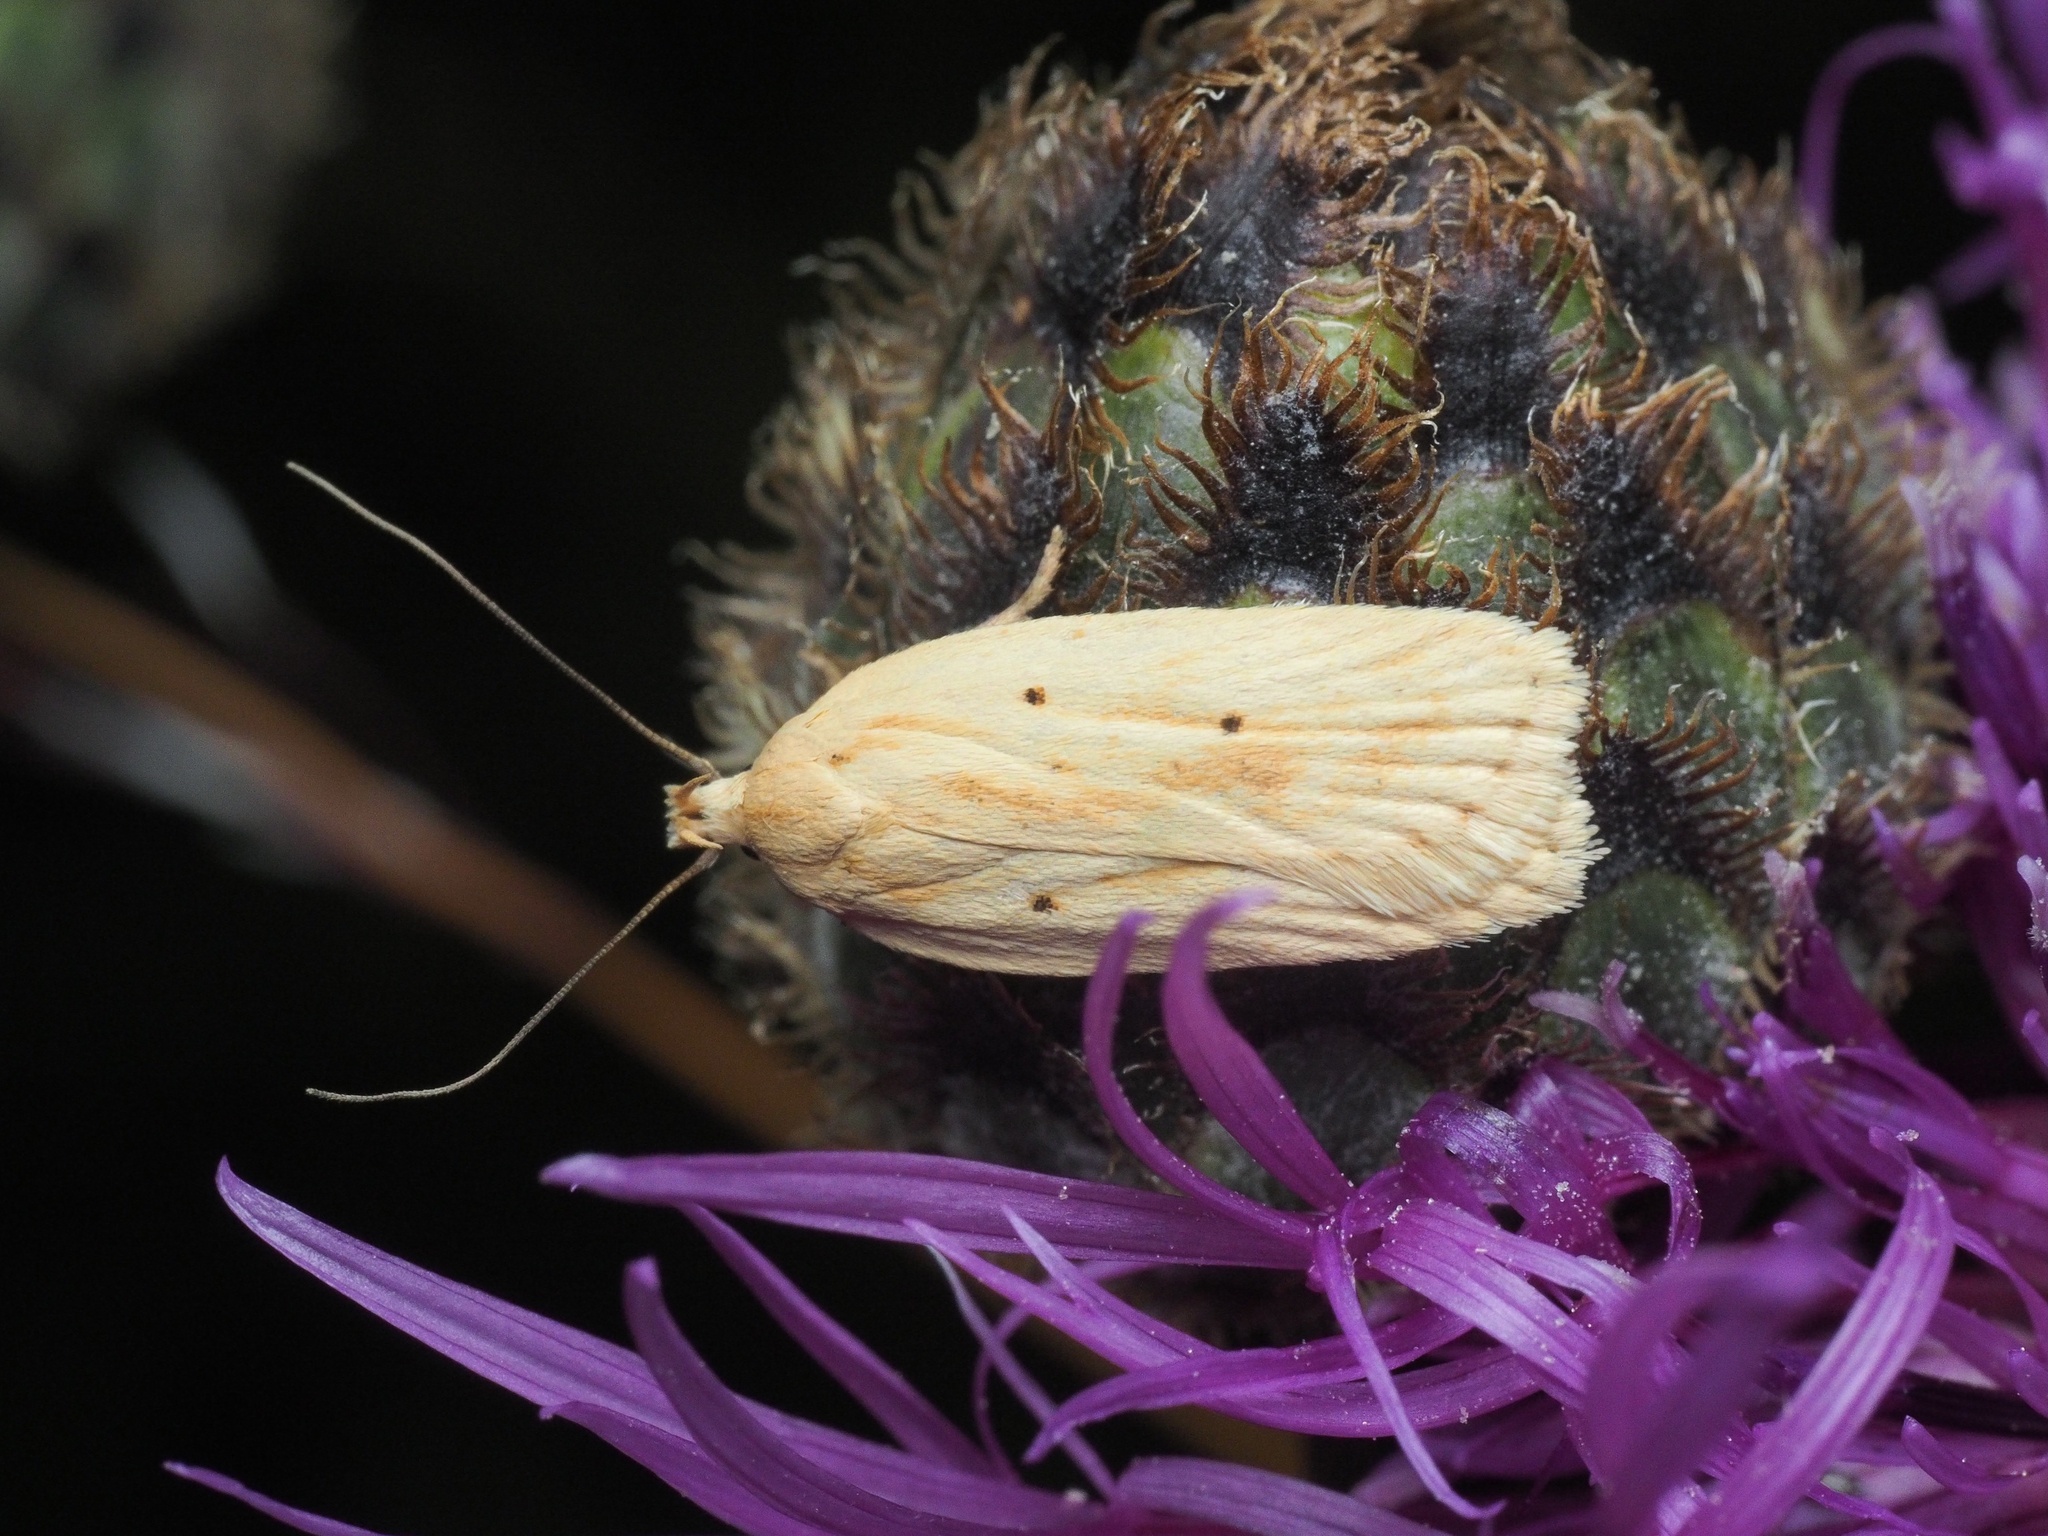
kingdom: Animalia
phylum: Arthropoda
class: Insecta
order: Lepidoptera
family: Depressariidae
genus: Agonopterix
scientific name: Agonopterix kaekeritziana
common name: Straw flat-body
